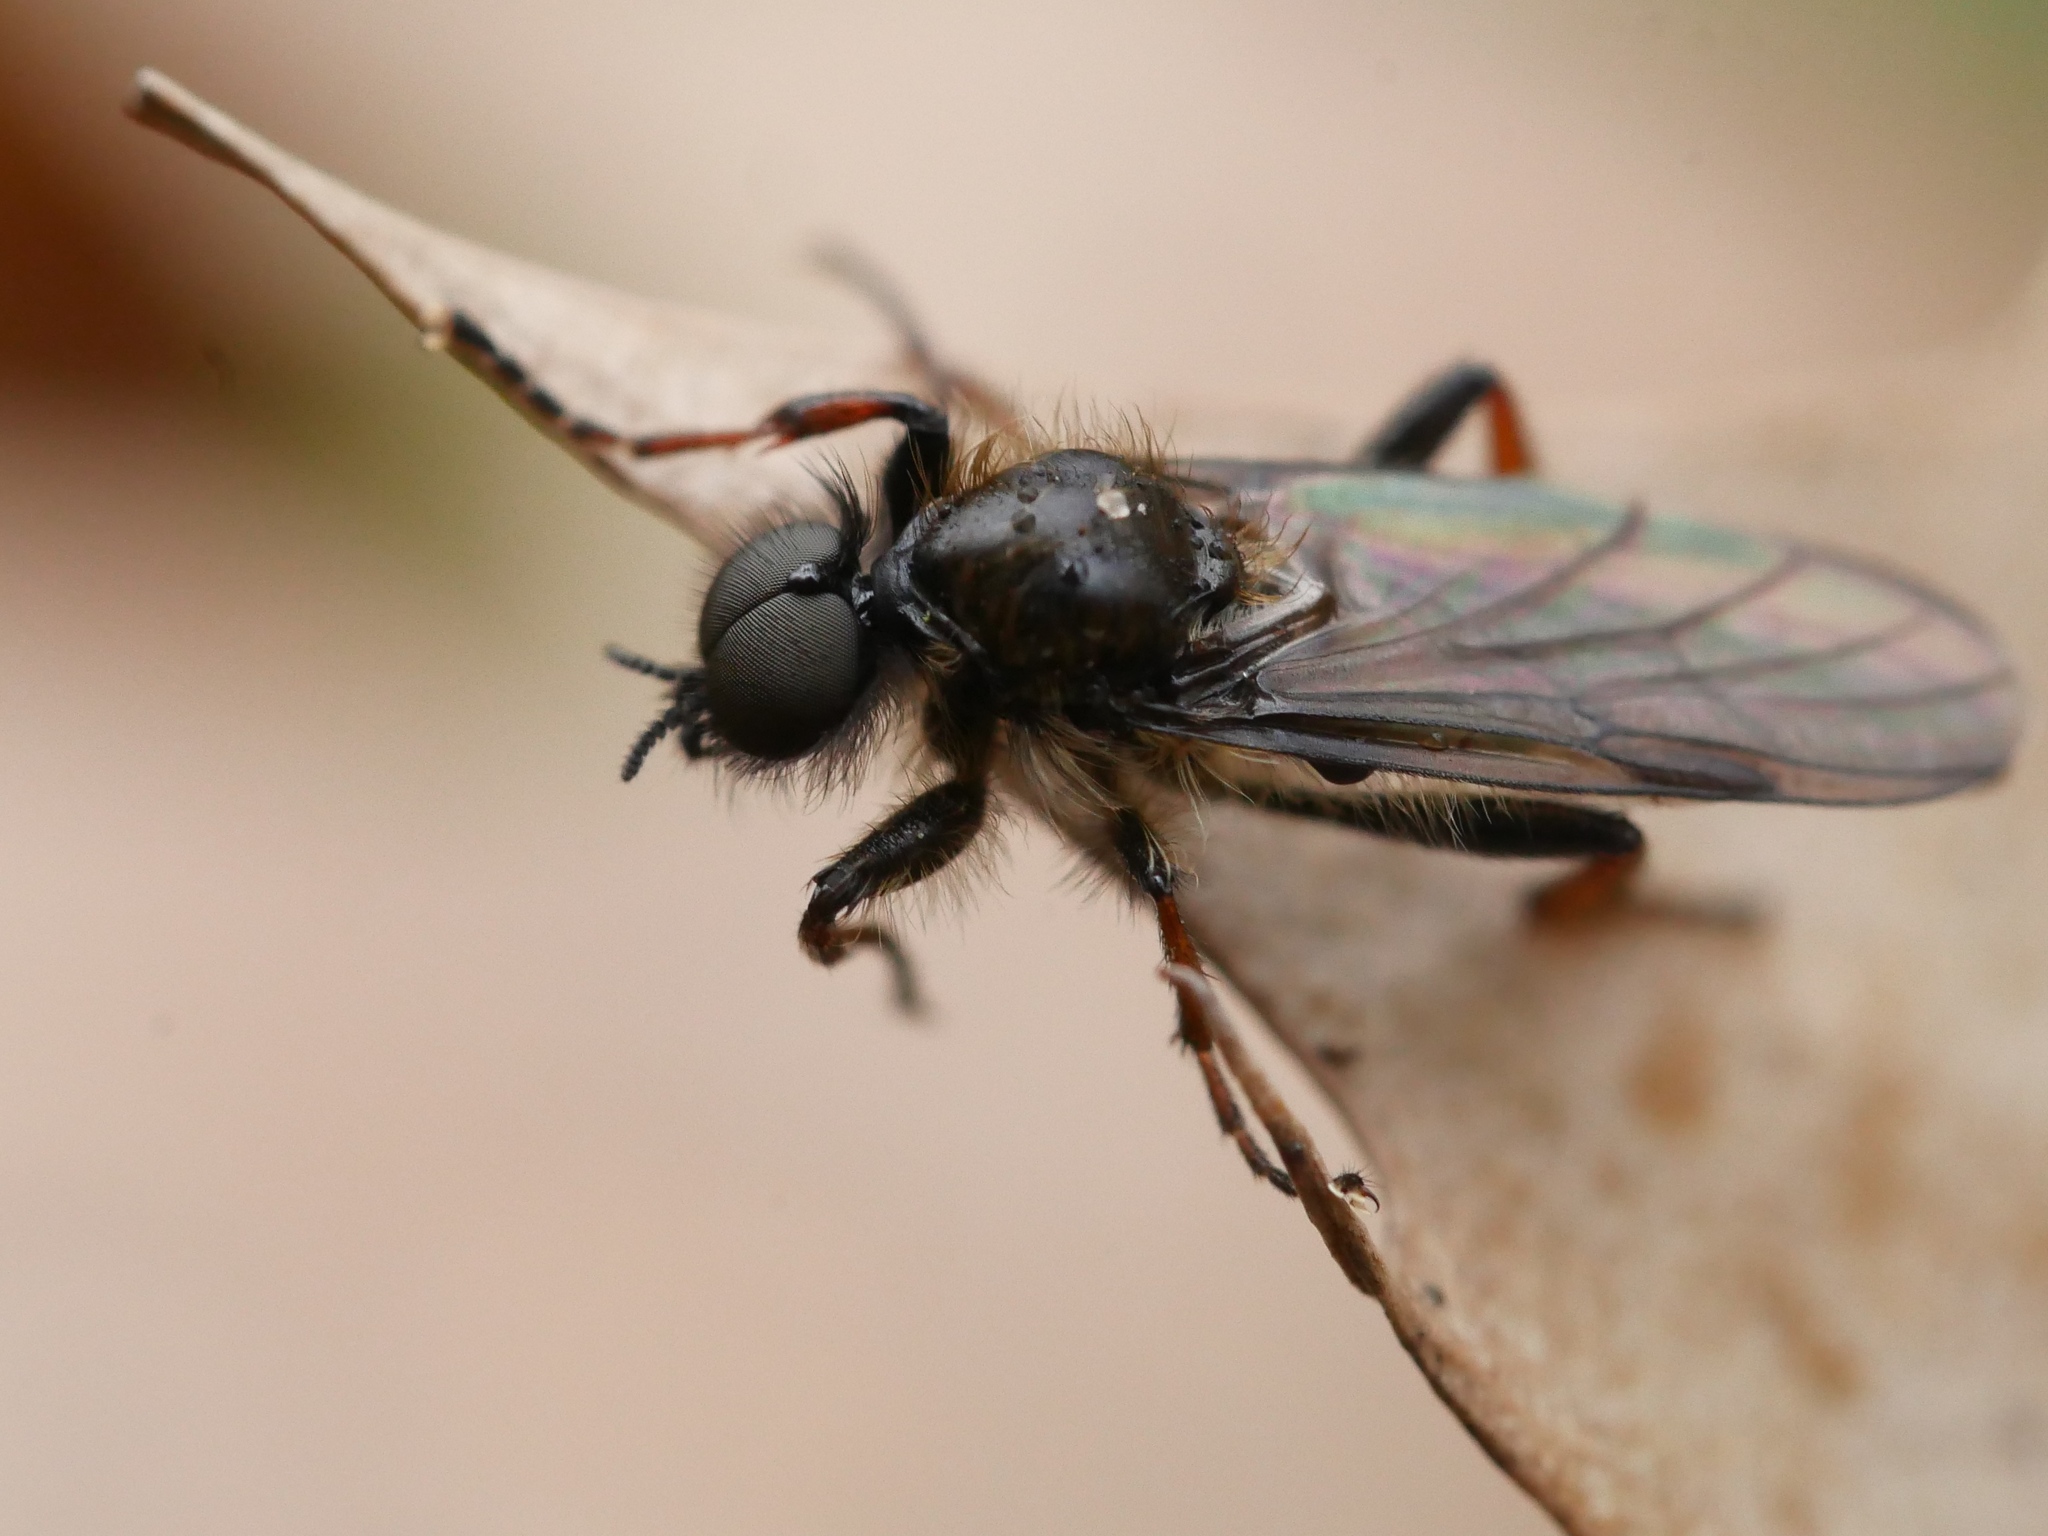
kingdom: Animalia
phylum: Arthropoda
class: Insecta
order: Diptera
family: Bibionidae
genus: Bibio
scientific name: Bibio marci
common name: St marks fly
